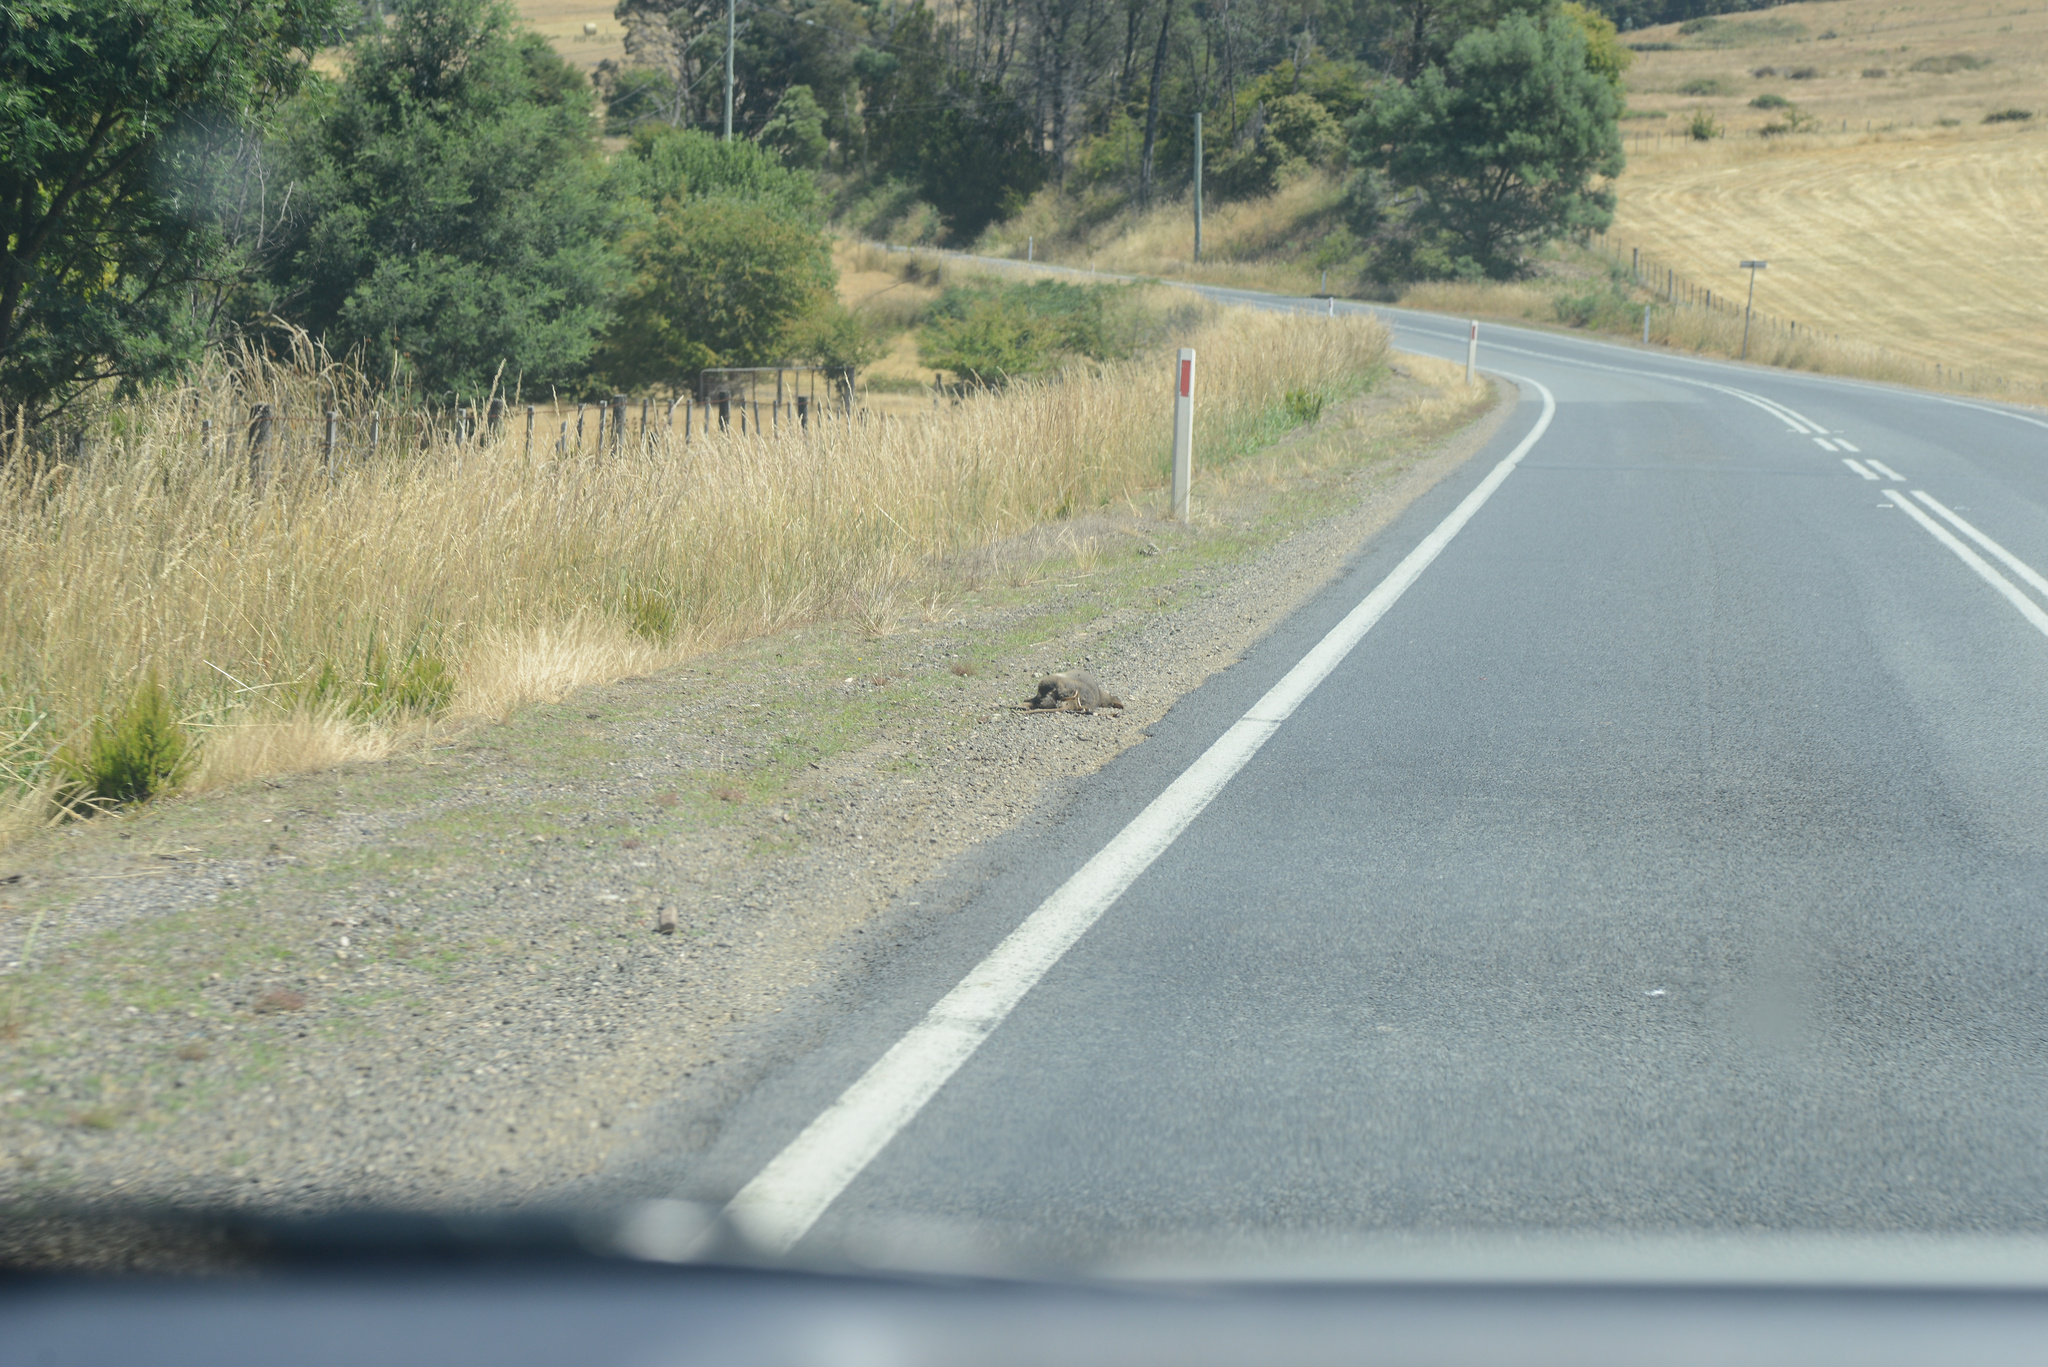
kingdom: Animalia
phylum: Chordata
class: Mammalia
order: Diprotodontia
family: Macropodidae
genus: Thylogale
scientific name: Thylogale billardierii
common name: Tasmanian pademelon
